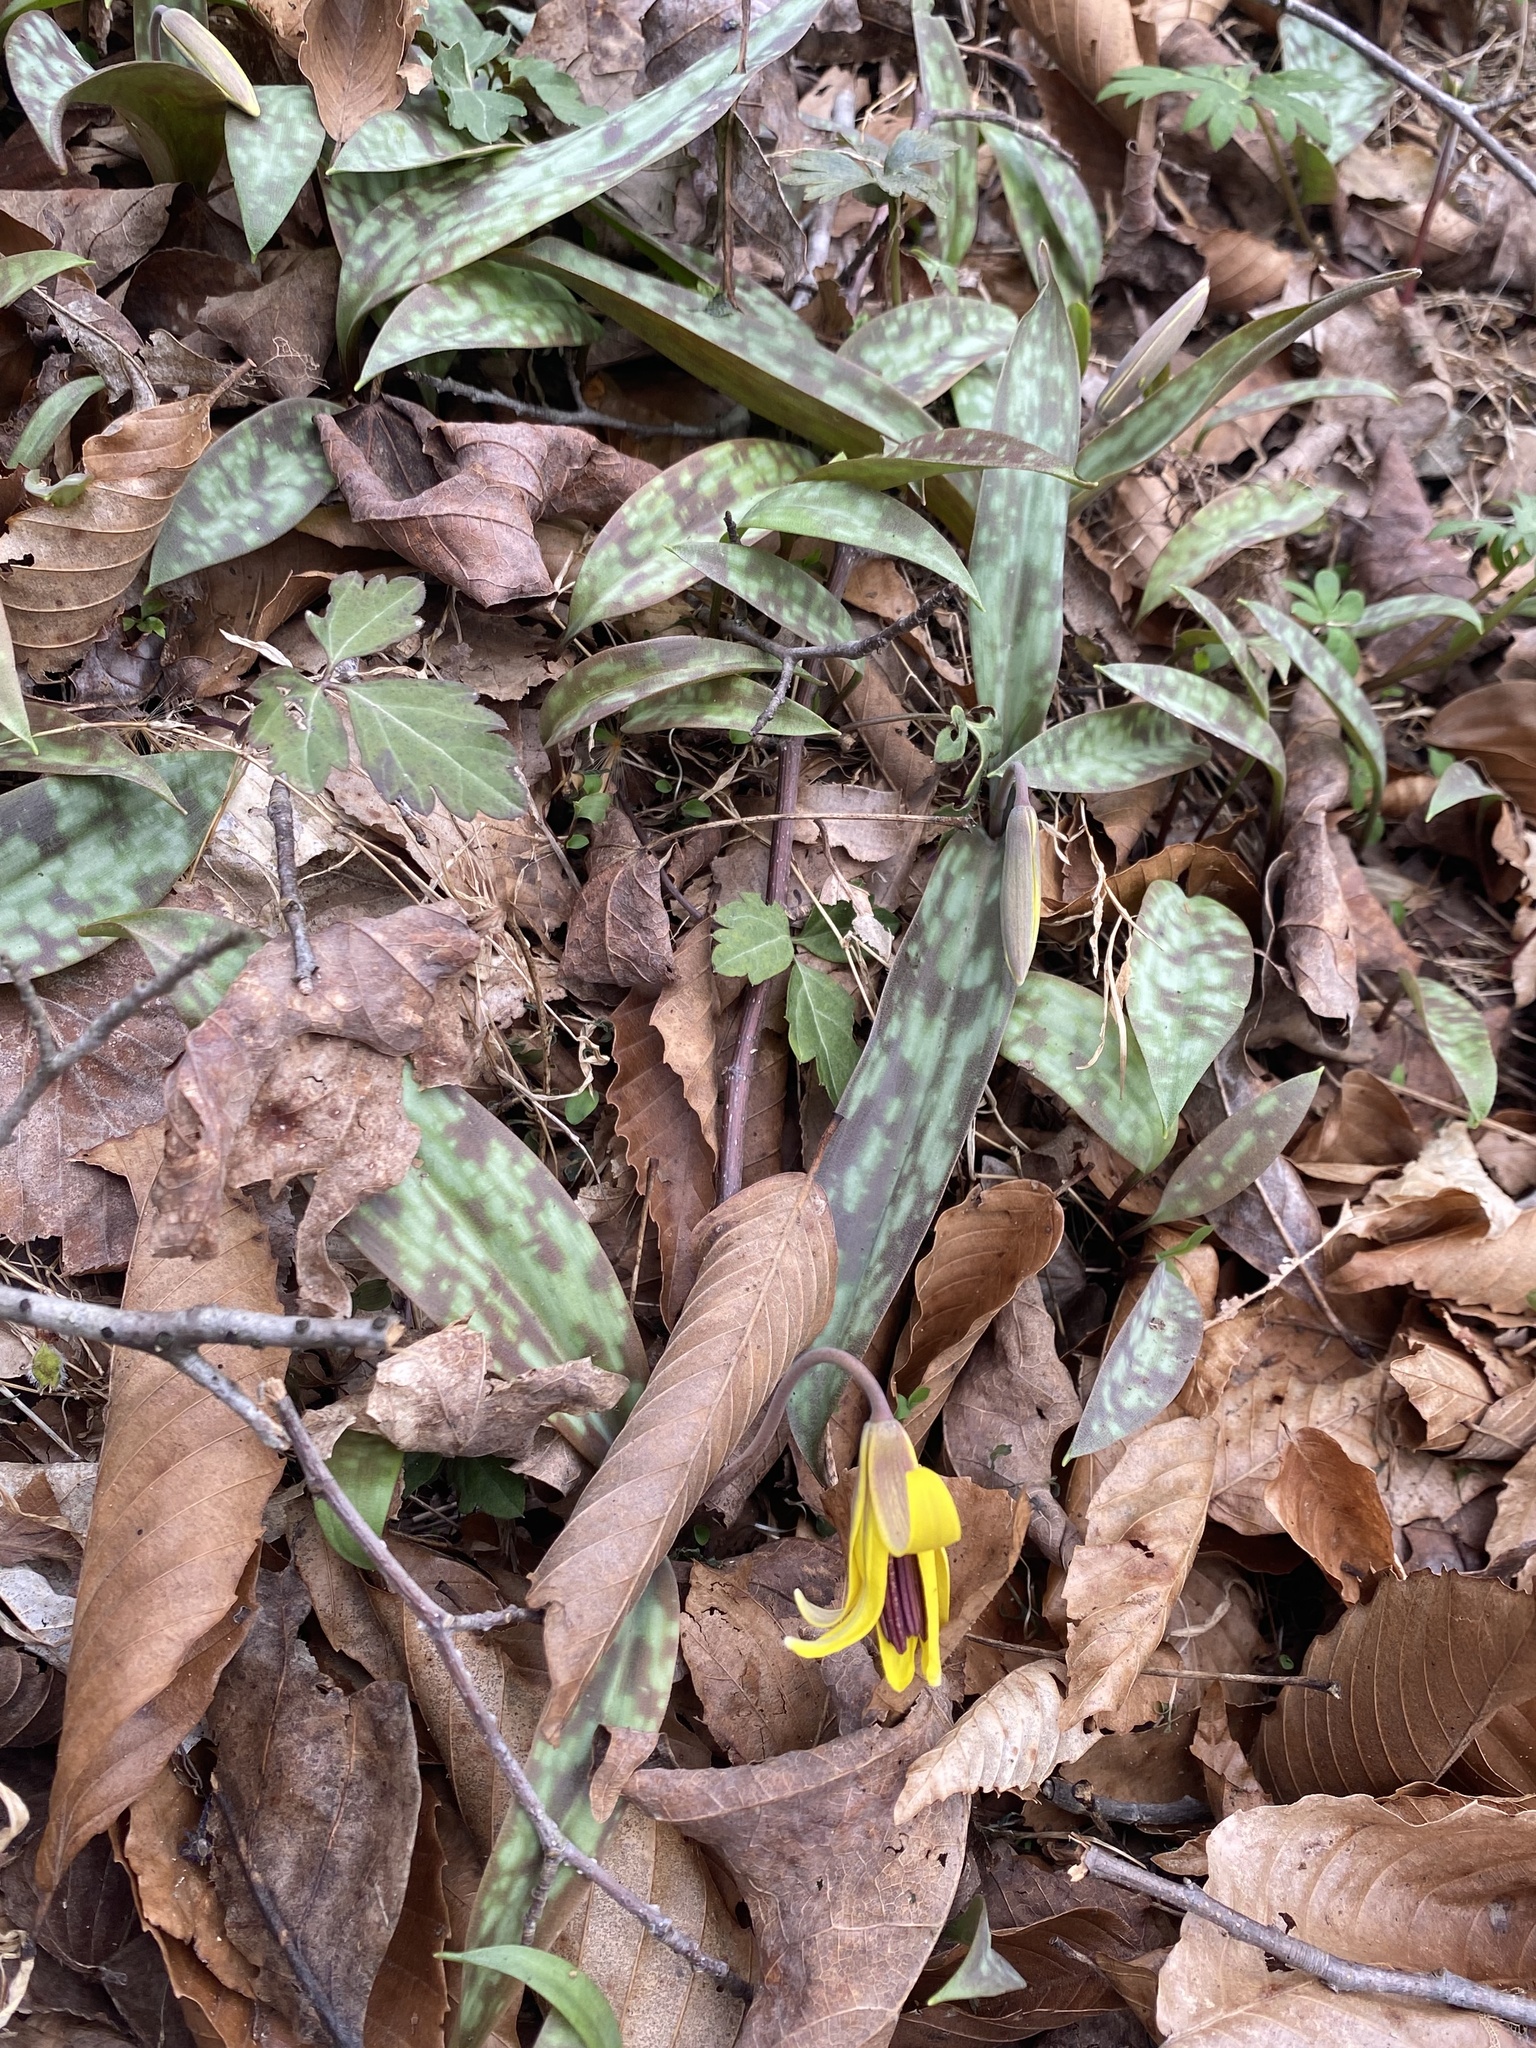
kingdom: Plantae
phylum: Tracheophyta
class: Liliopsida
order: Liliales
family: Liliaceae
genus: Erythronium
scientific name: Erythronium americanum
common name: Yellow adder's-tongue
